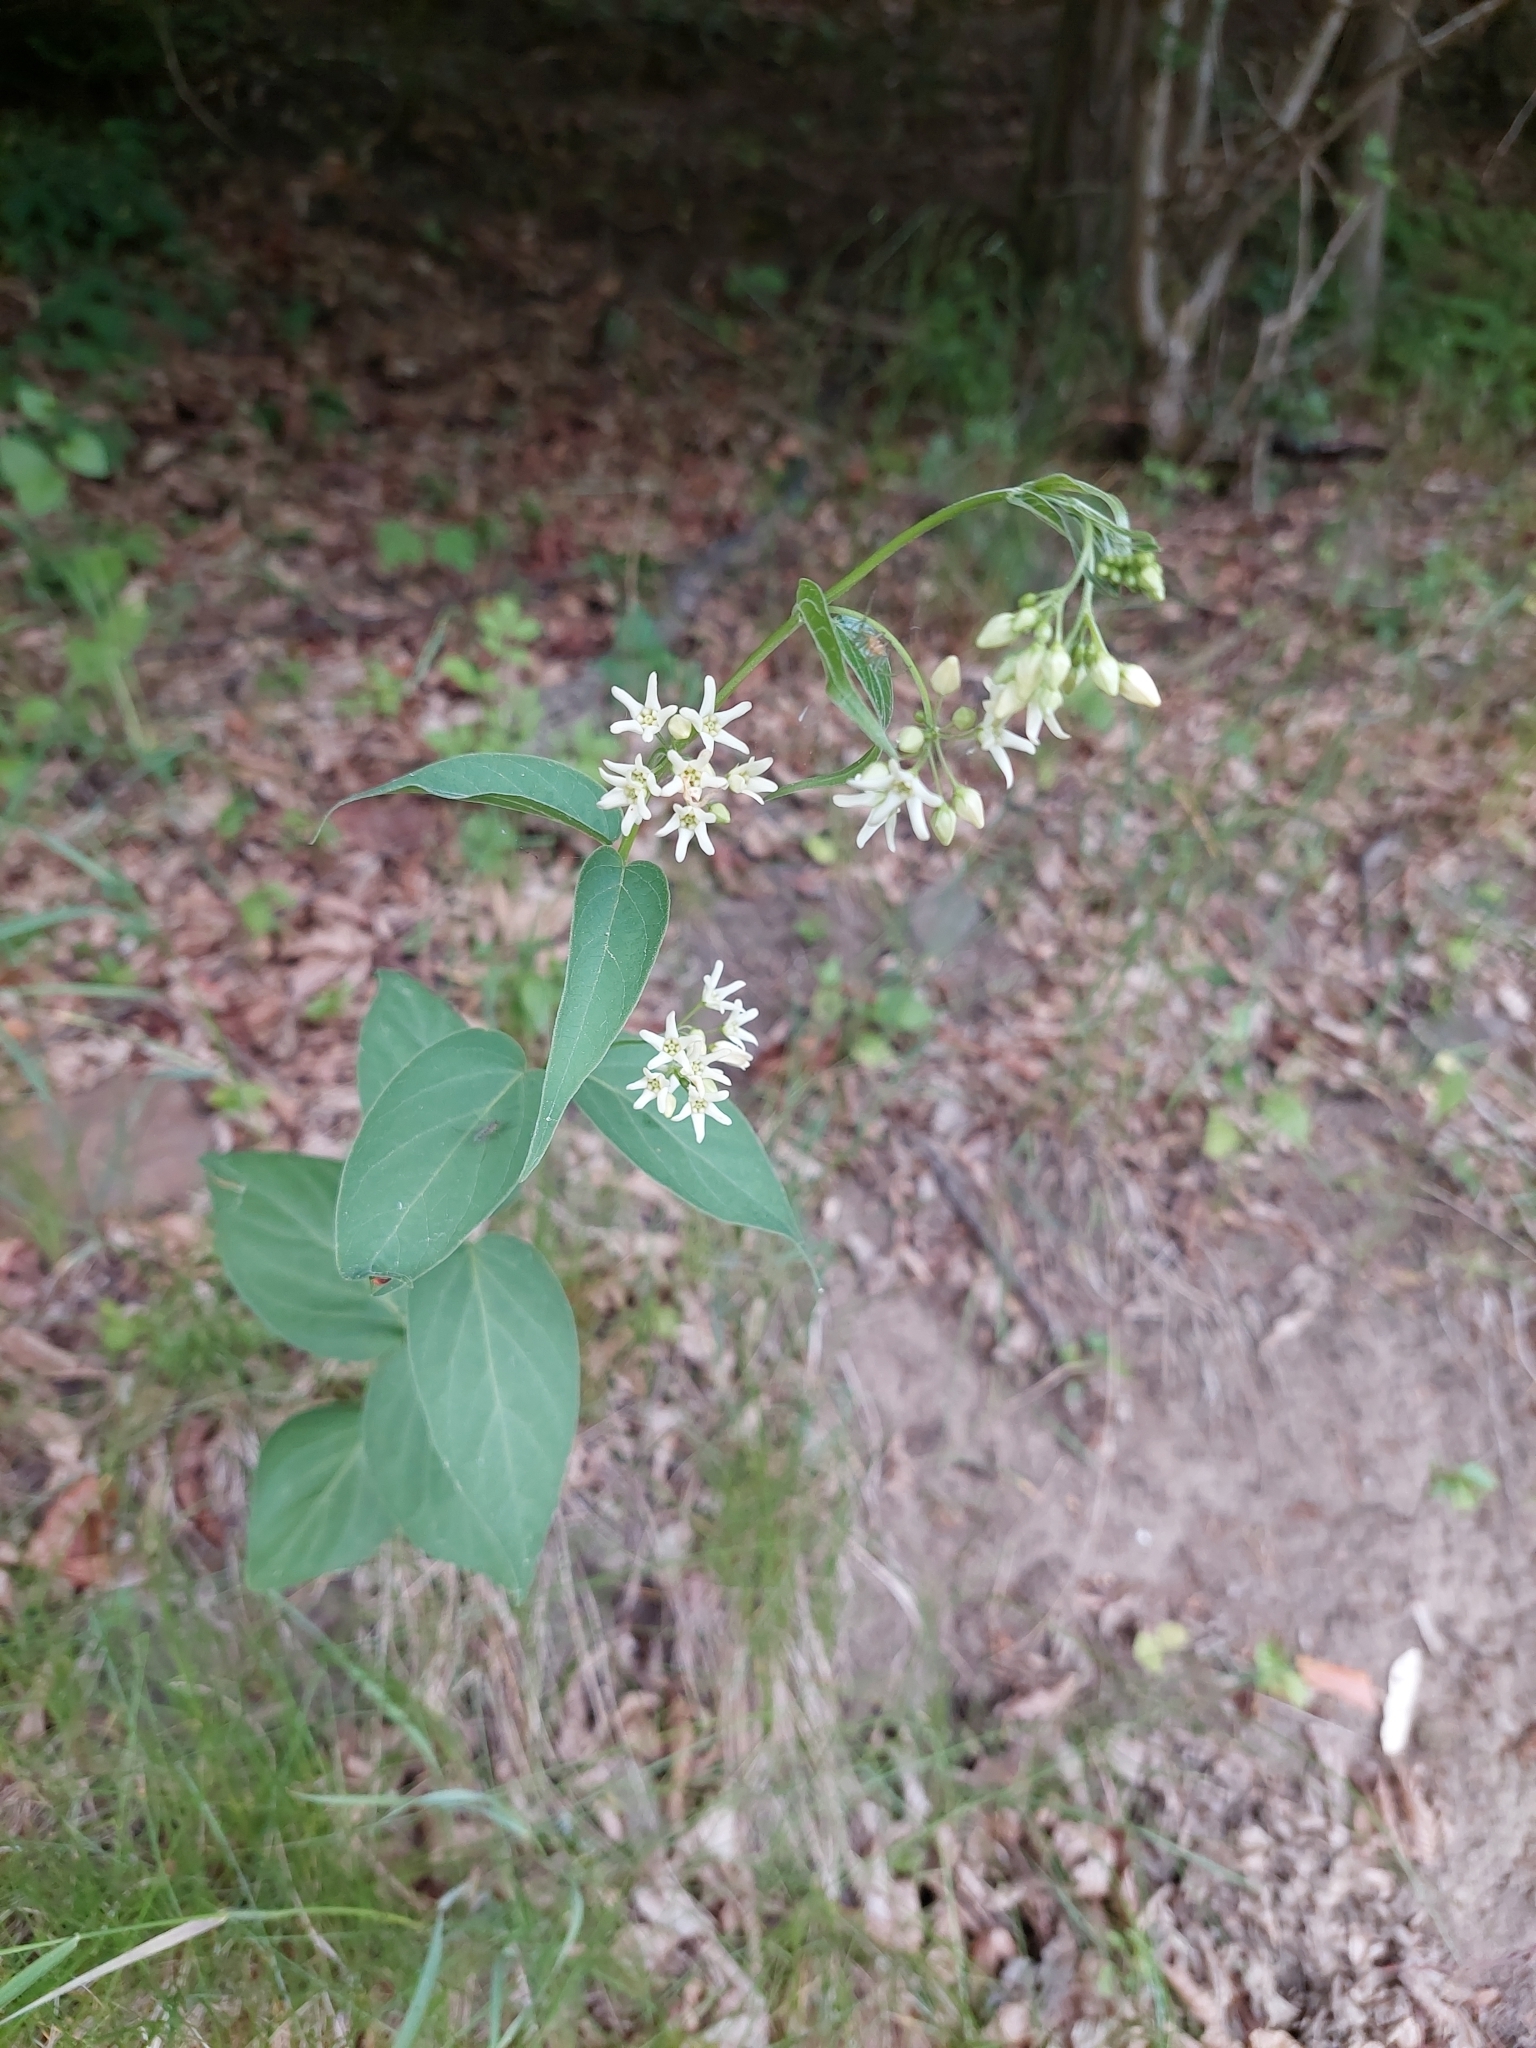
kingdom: Plantae
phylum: Tracheophyta
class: Magnoliopsida
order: Gentianales
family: Apocynaceae
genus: Vincetoxicum
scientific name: Vincetoxicum hirundinaria
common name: White swallowwort
